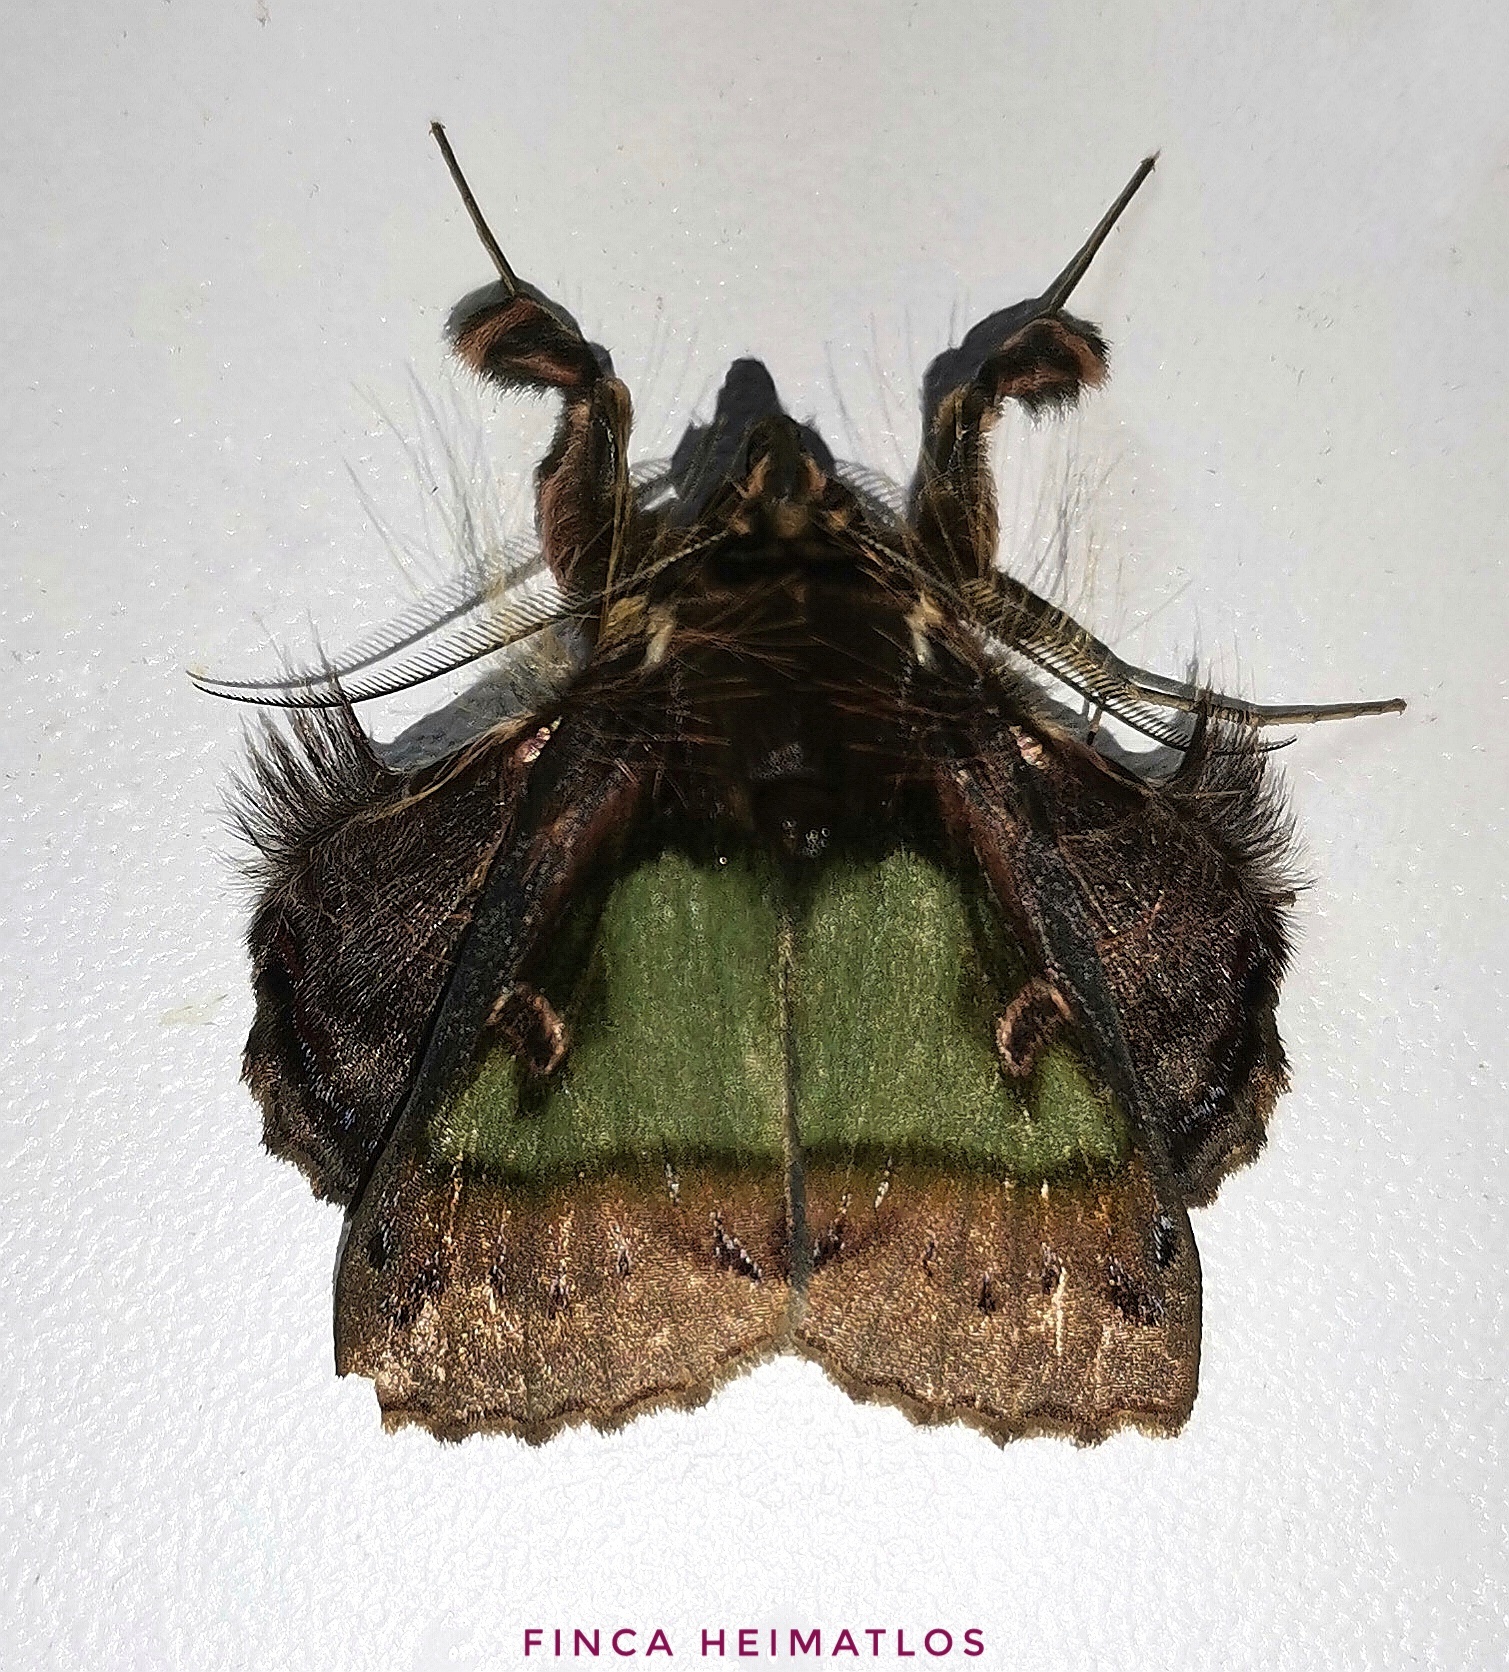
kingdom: Animalia
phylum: Arthropoda
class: Insecta
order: Lepidoptera
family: Erebidae
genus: Ceroctena
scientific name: Ceroctena amynta
